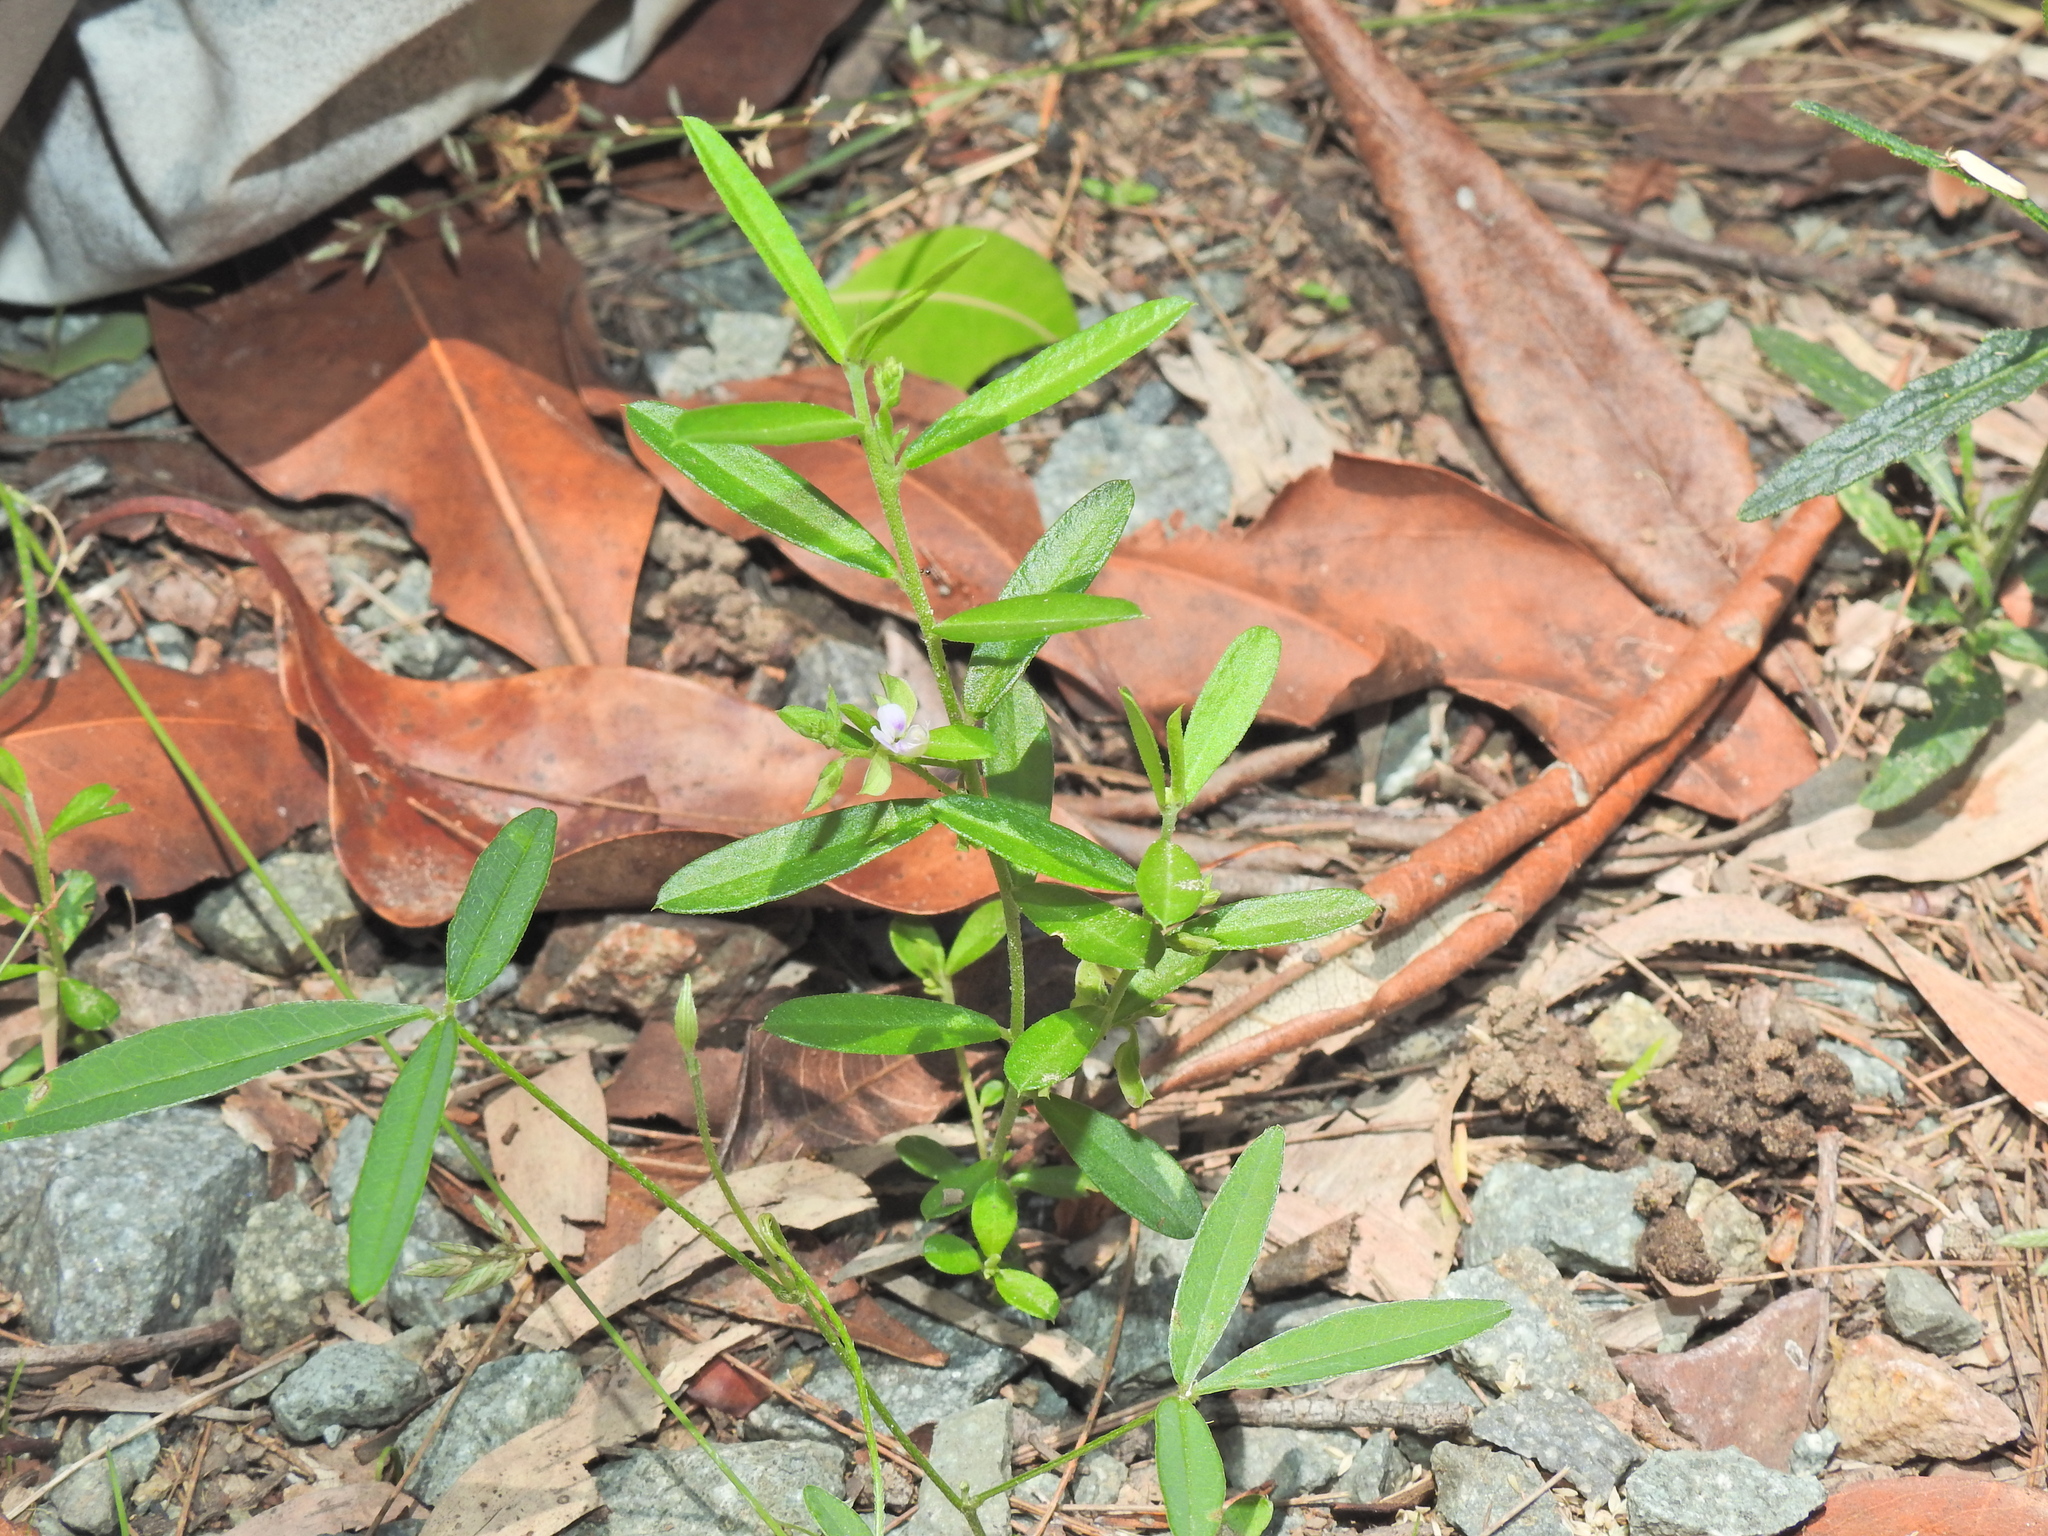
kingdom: Plantae
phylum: Tracheophyta
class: Magnoliopsida
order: Fabales
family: Polygalaceae
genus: Polygala
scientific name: Polygala triflora
